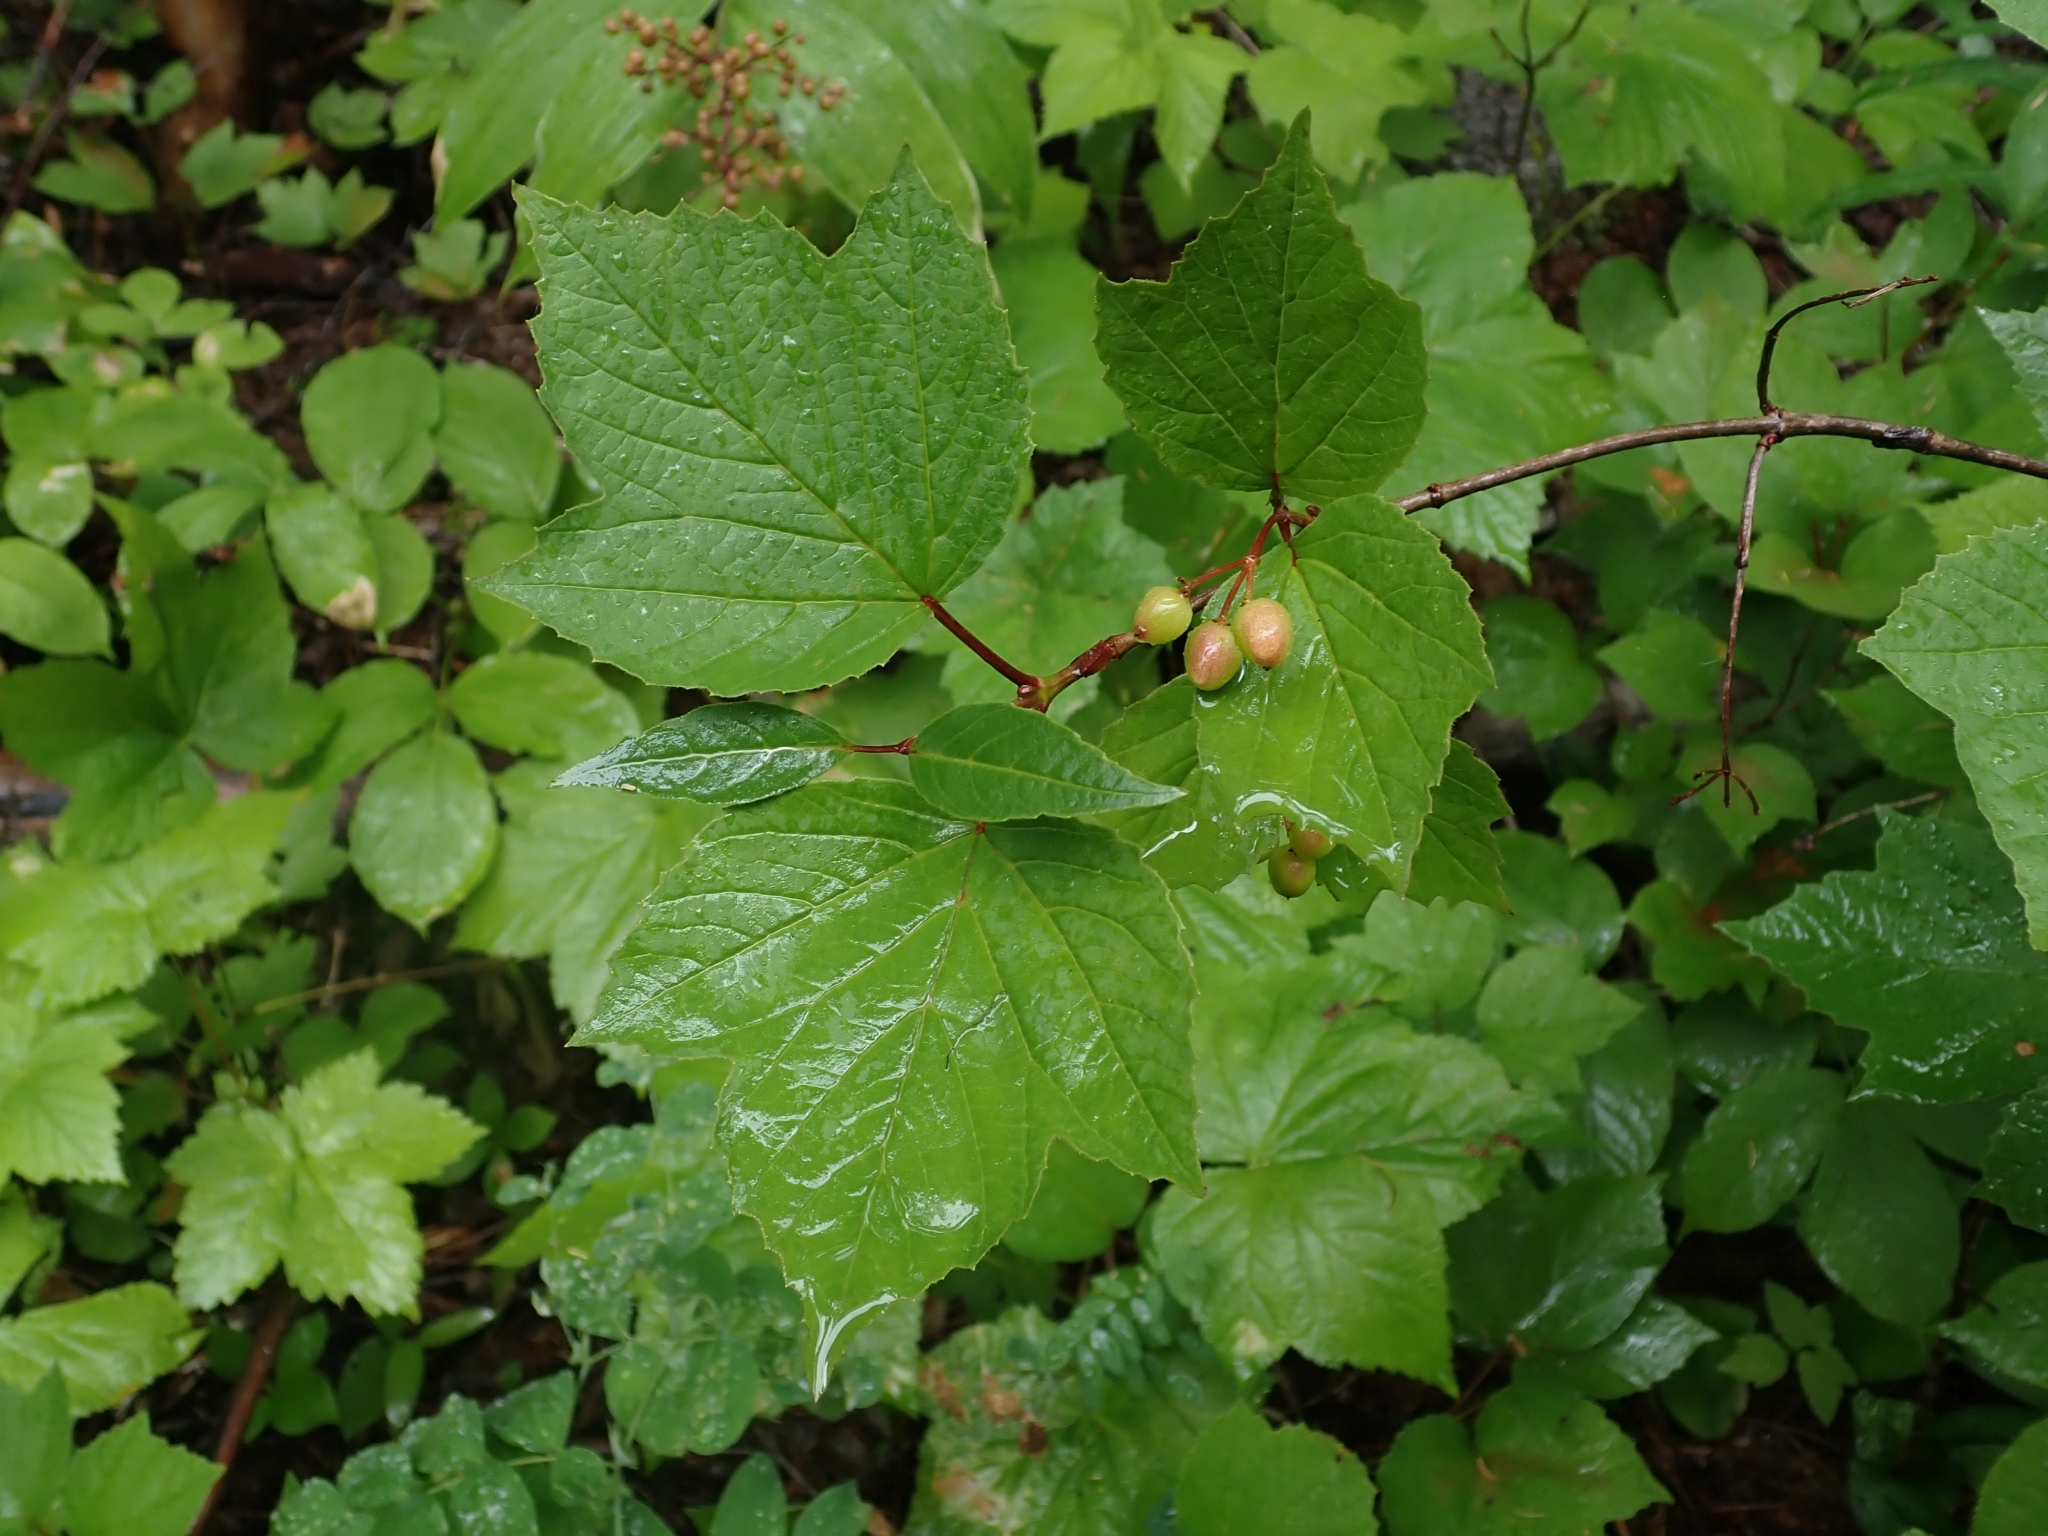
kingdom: Plantae
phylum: Tracheophyta
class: Magnoliopsida
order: Dipsacales
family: Viburnaceae
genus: Viburnum
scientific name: Viburnum edule
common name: Mooseberry
